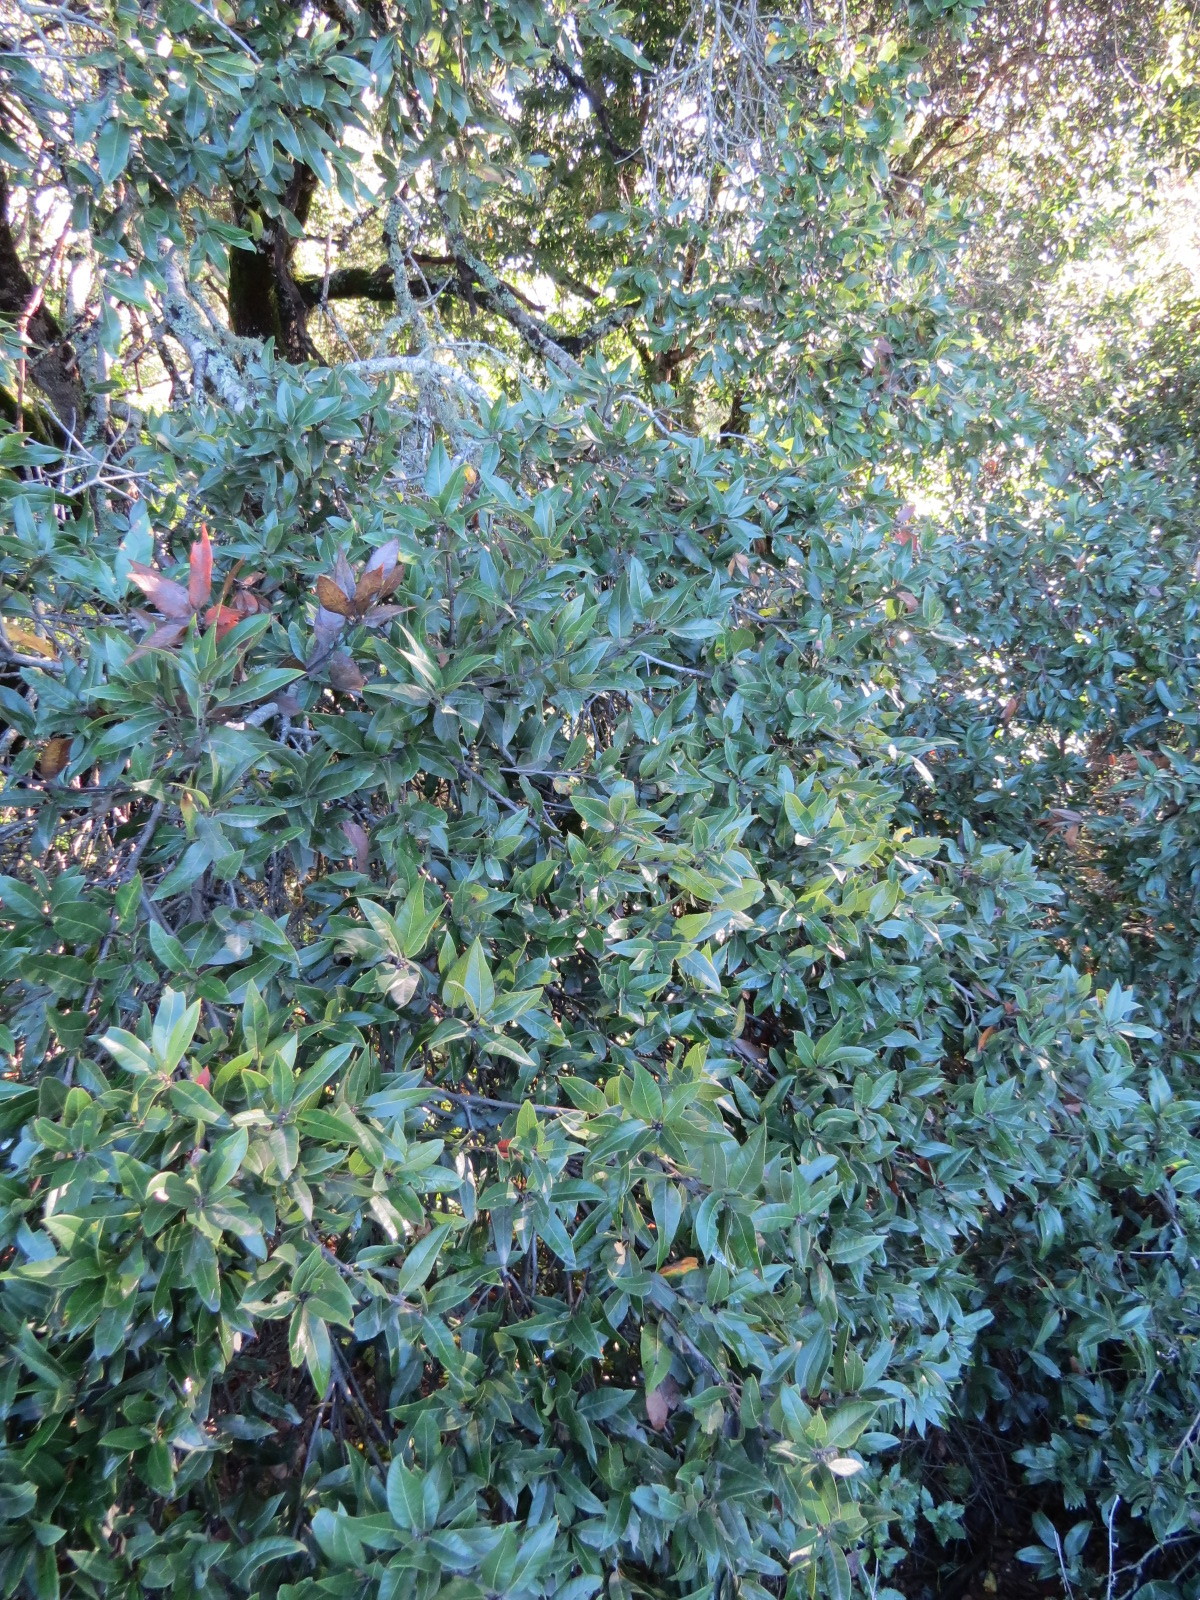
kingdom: Plantae
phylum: Tracheophyta
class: Magnoliopsida
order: Fagales
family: Fagaceae
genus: Quercus
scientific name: Quercus parvula
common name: Santa cruz island oak
